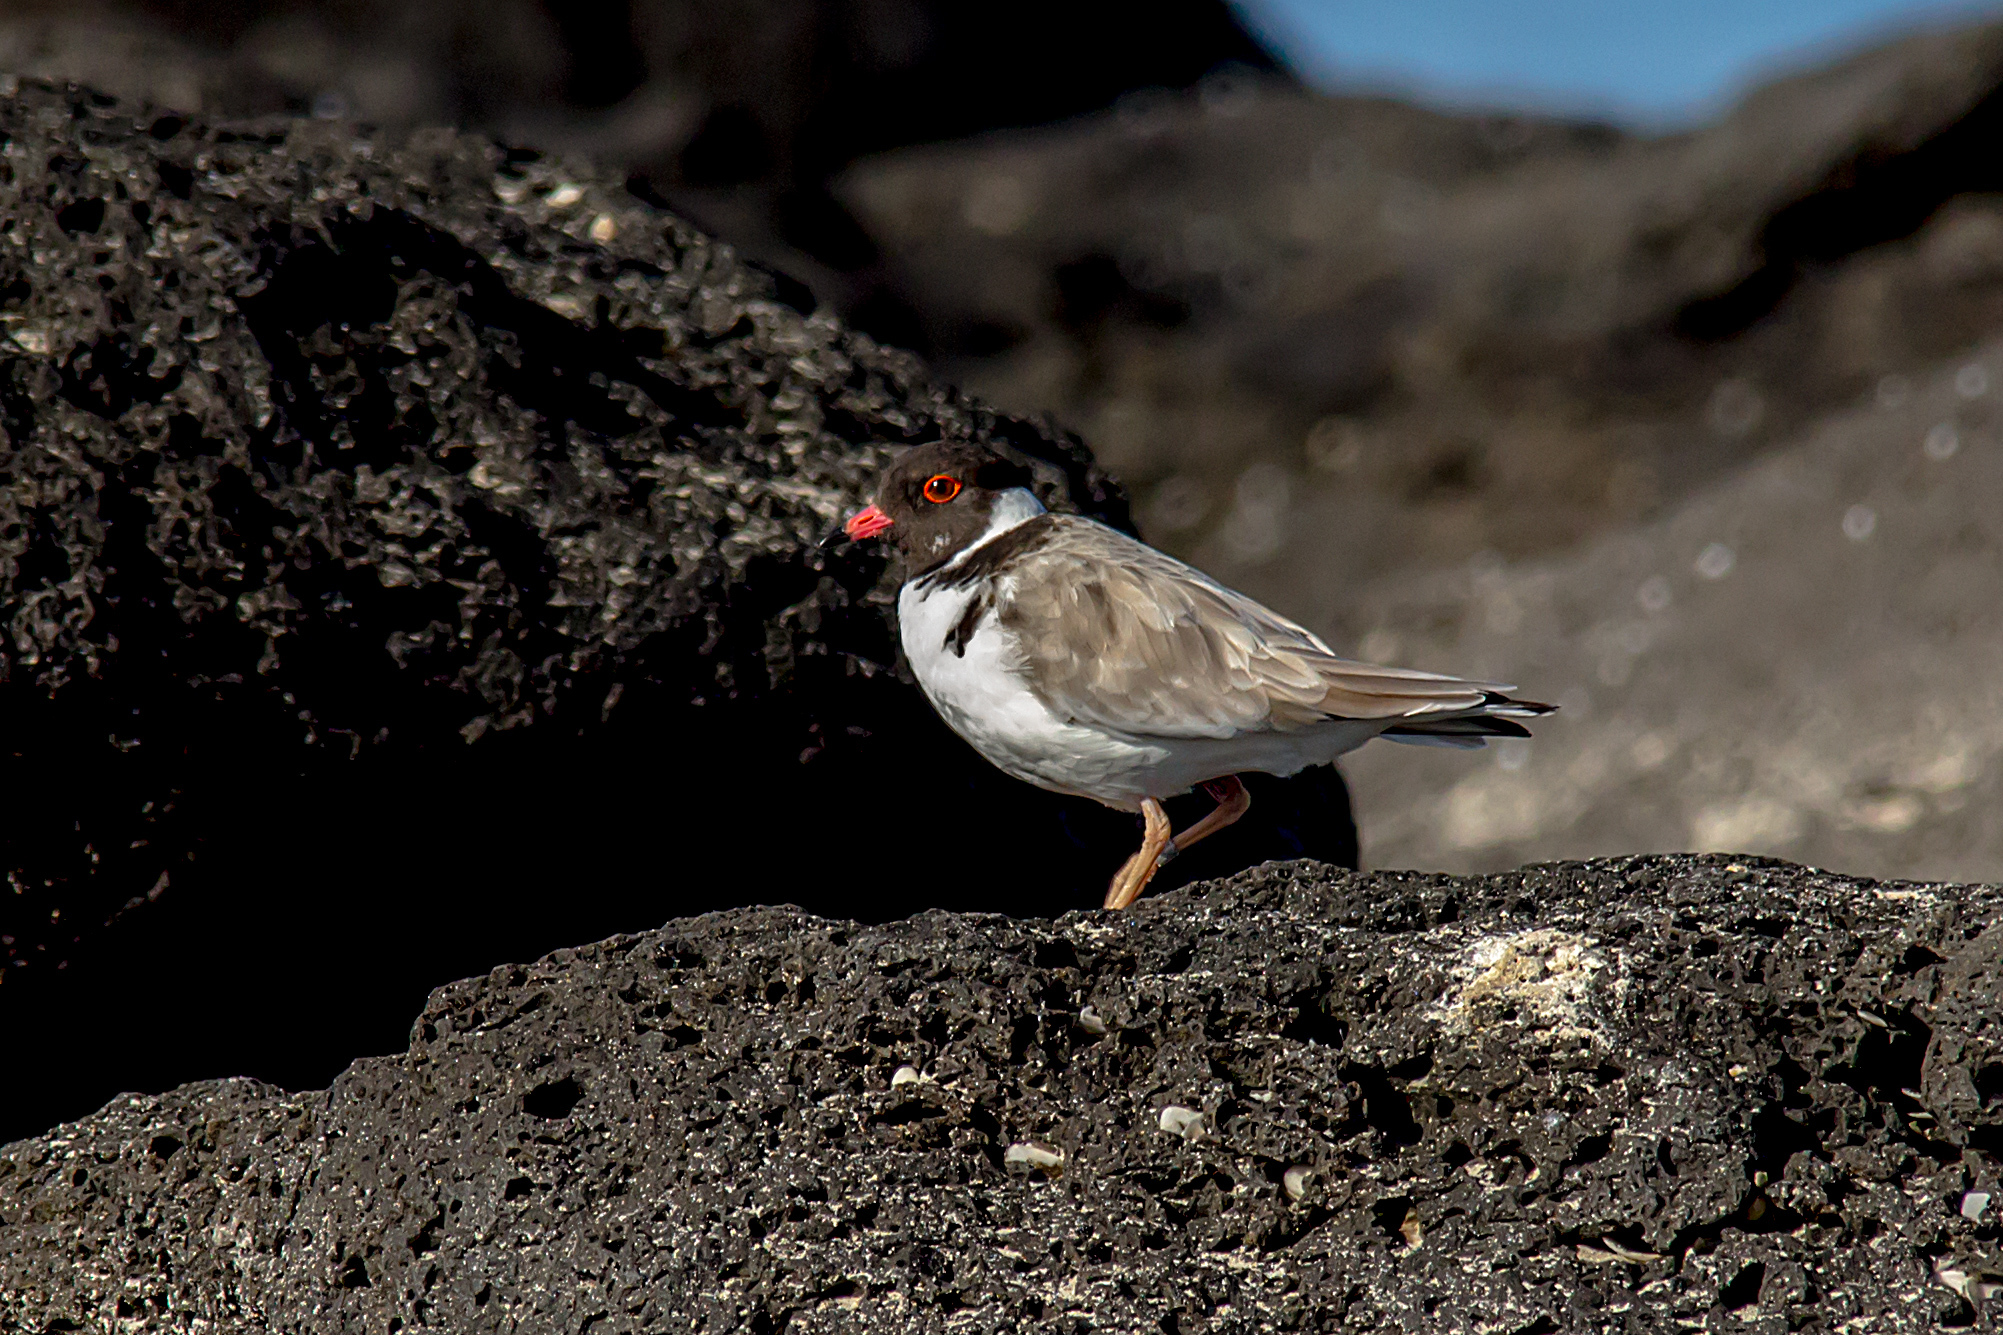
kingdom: Animalia
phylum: Chordata
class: Aves
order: Charadriiformes
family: Charadriidae
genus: Thinornis
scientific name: Thinornis cucullatus
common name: Hooded dotterel
